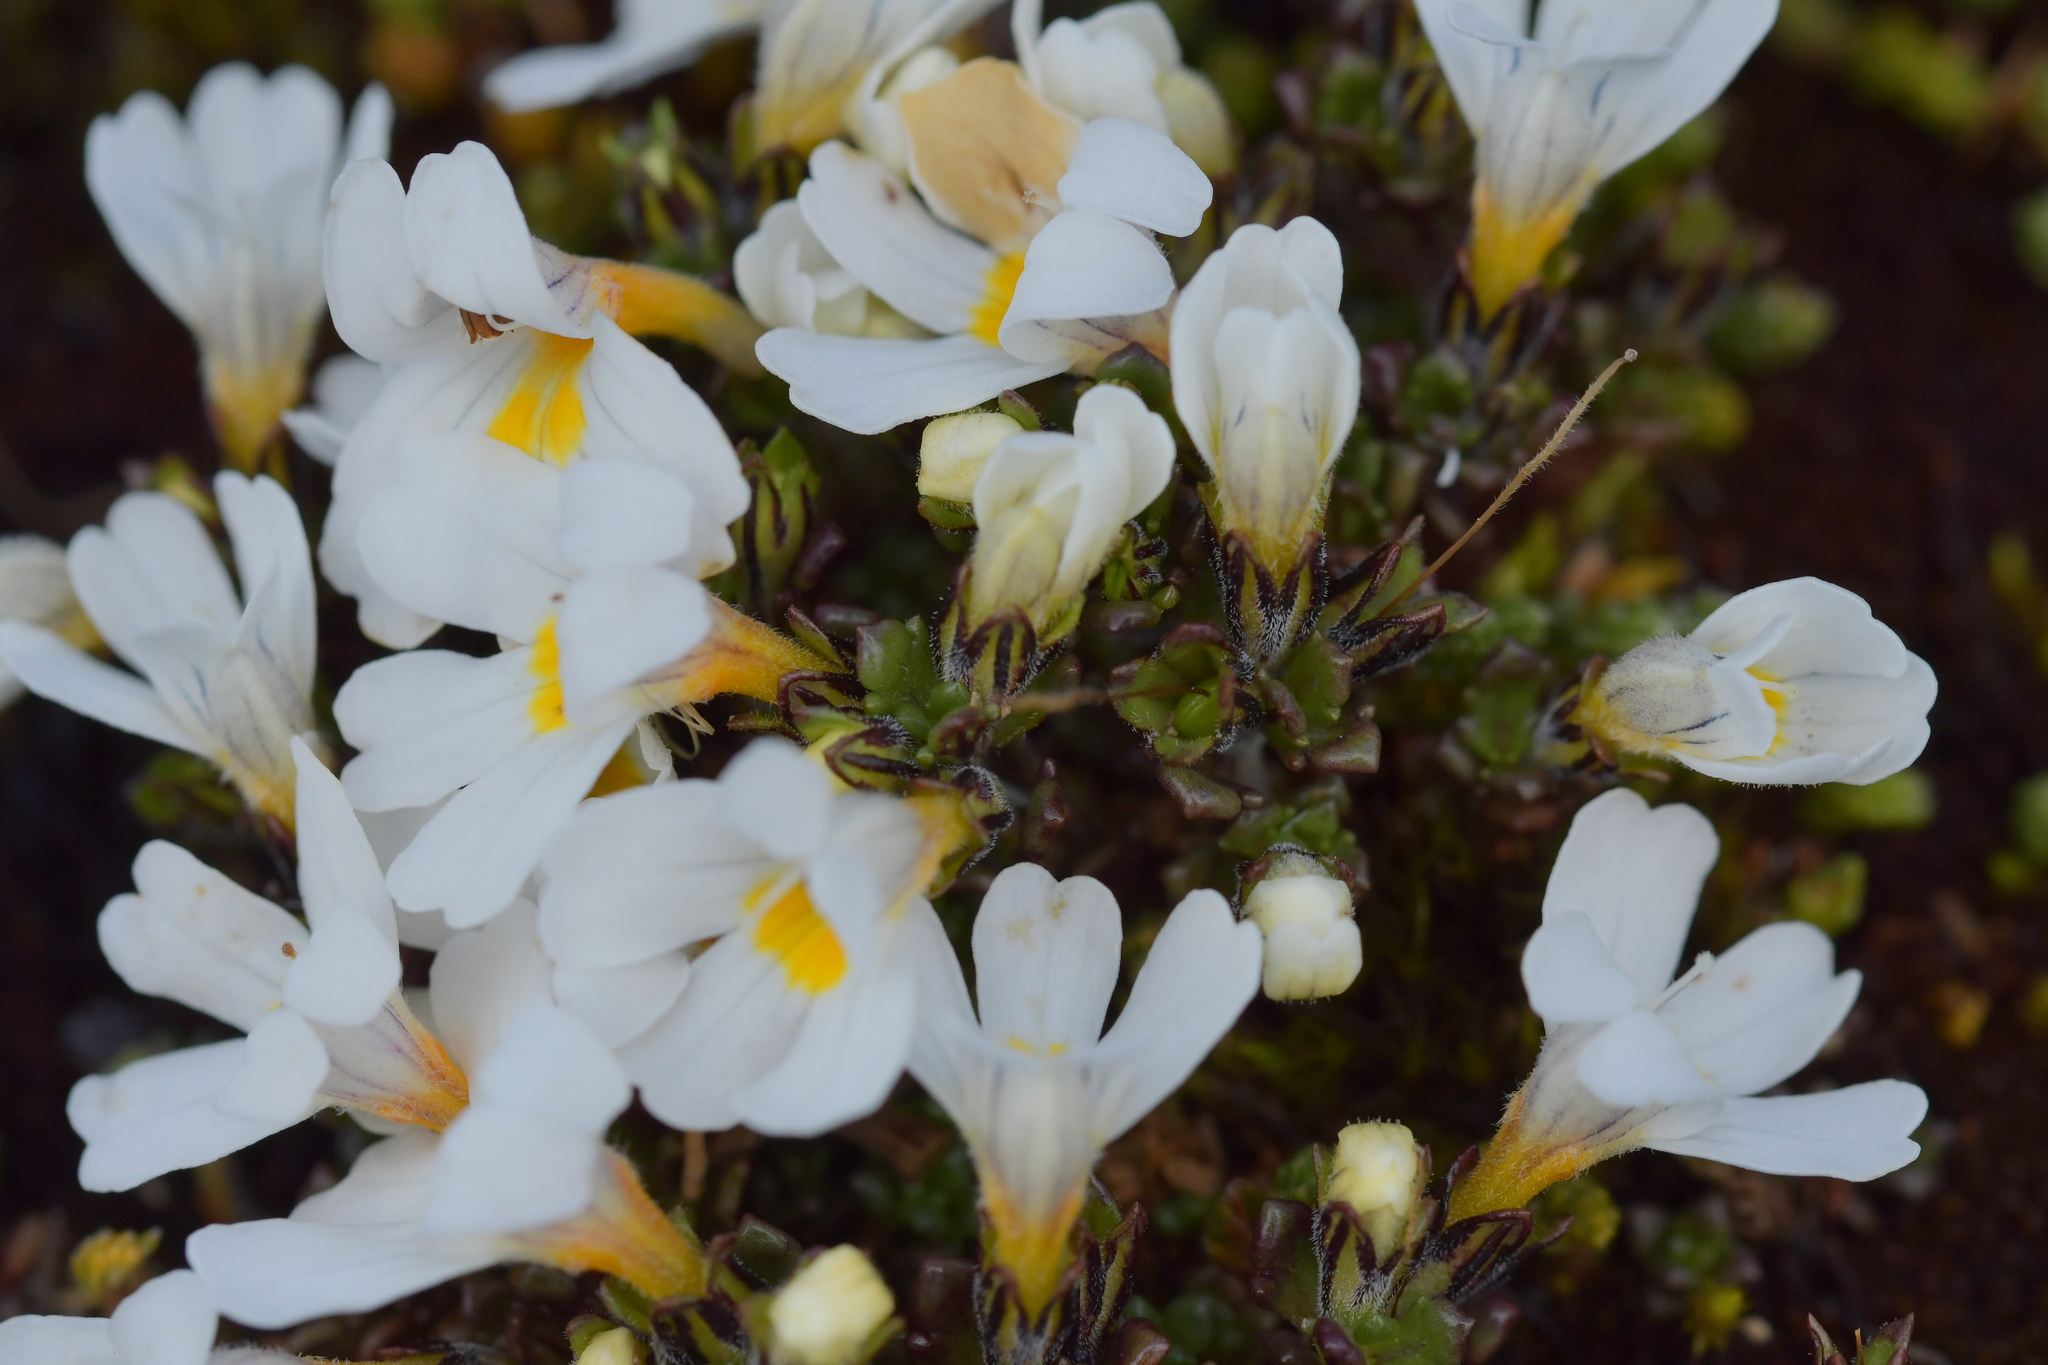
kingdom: Plantae
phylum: Tracheophyta
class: Magnoliopsida
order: Lamiales
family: Orobanchaceae
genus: Euphrasia
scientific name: Euphrasia revoluta
